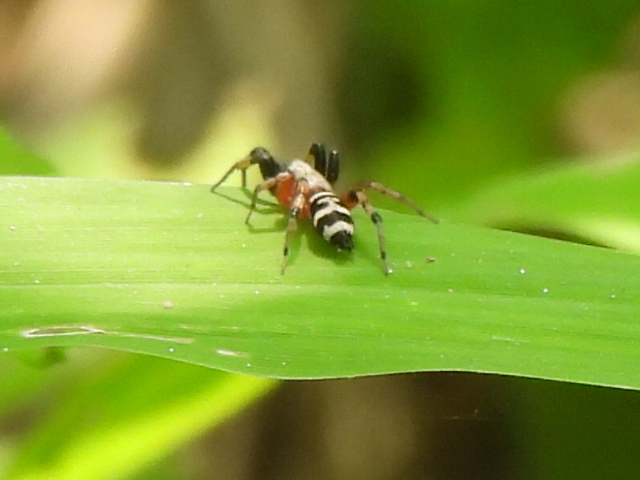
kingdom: Animalia
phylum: Arthropoda
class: Arachnida
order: Araneae
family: Gnaphosidae
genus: Sergiolus
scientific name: Sergiolus capulatus
